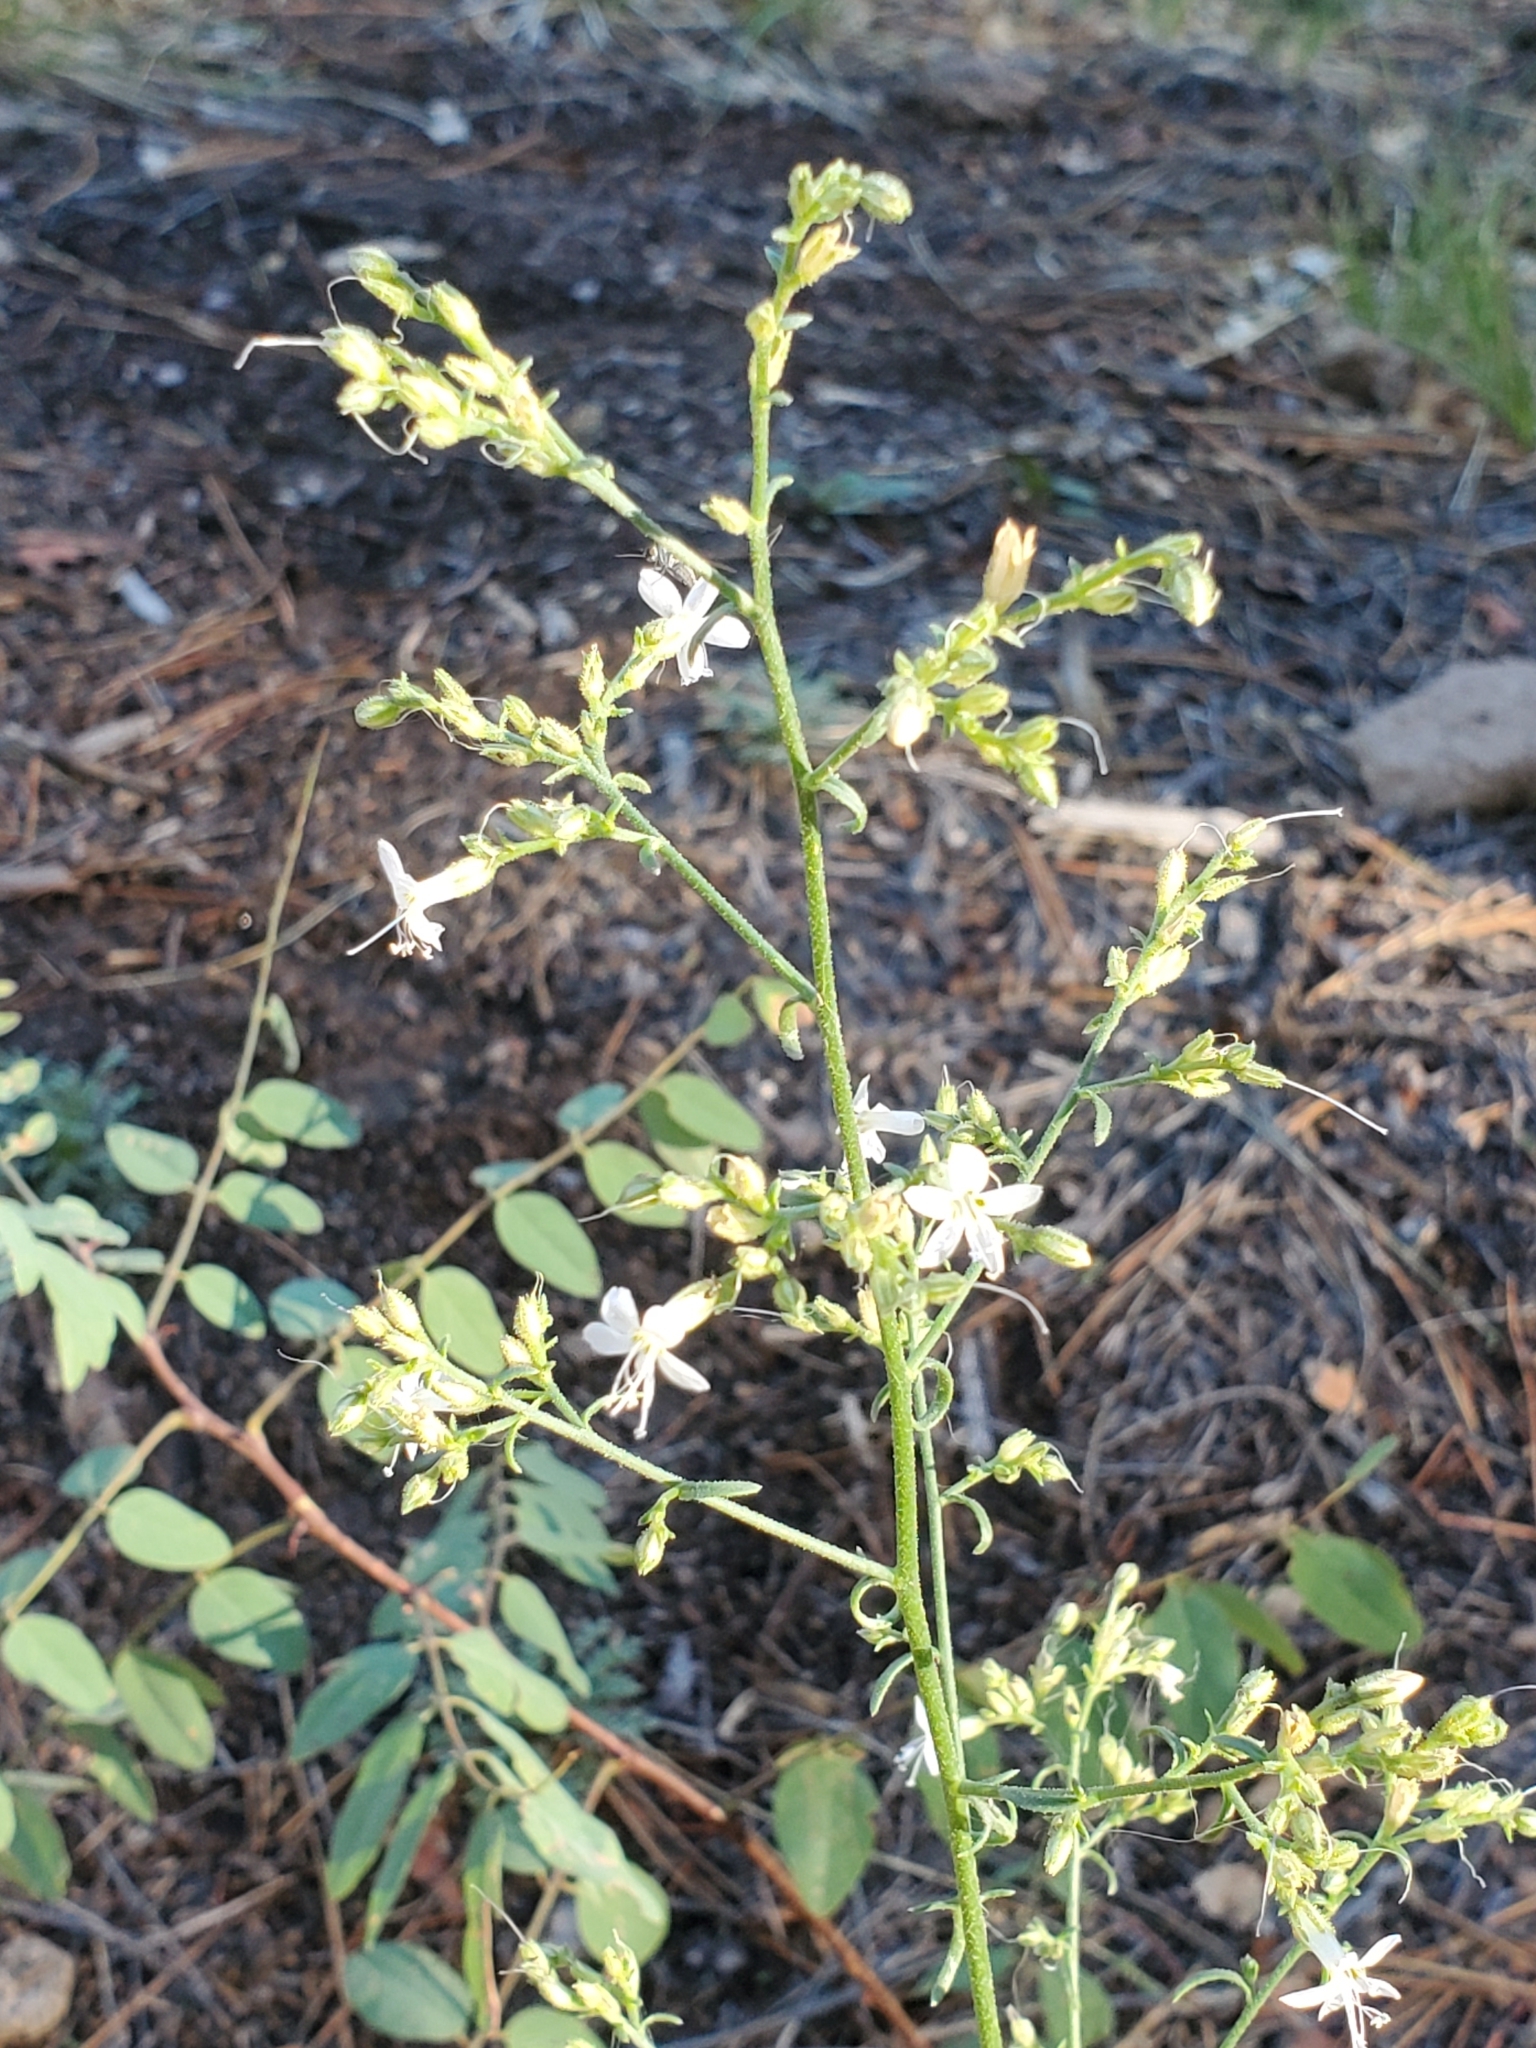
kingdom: Plantae
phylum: Tracheophyta
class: Magnoliopsida
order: Ericales
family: Polemoniaceae
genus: Aliciella
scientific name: Aliciella pinnatifida
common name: Sticky gilia
